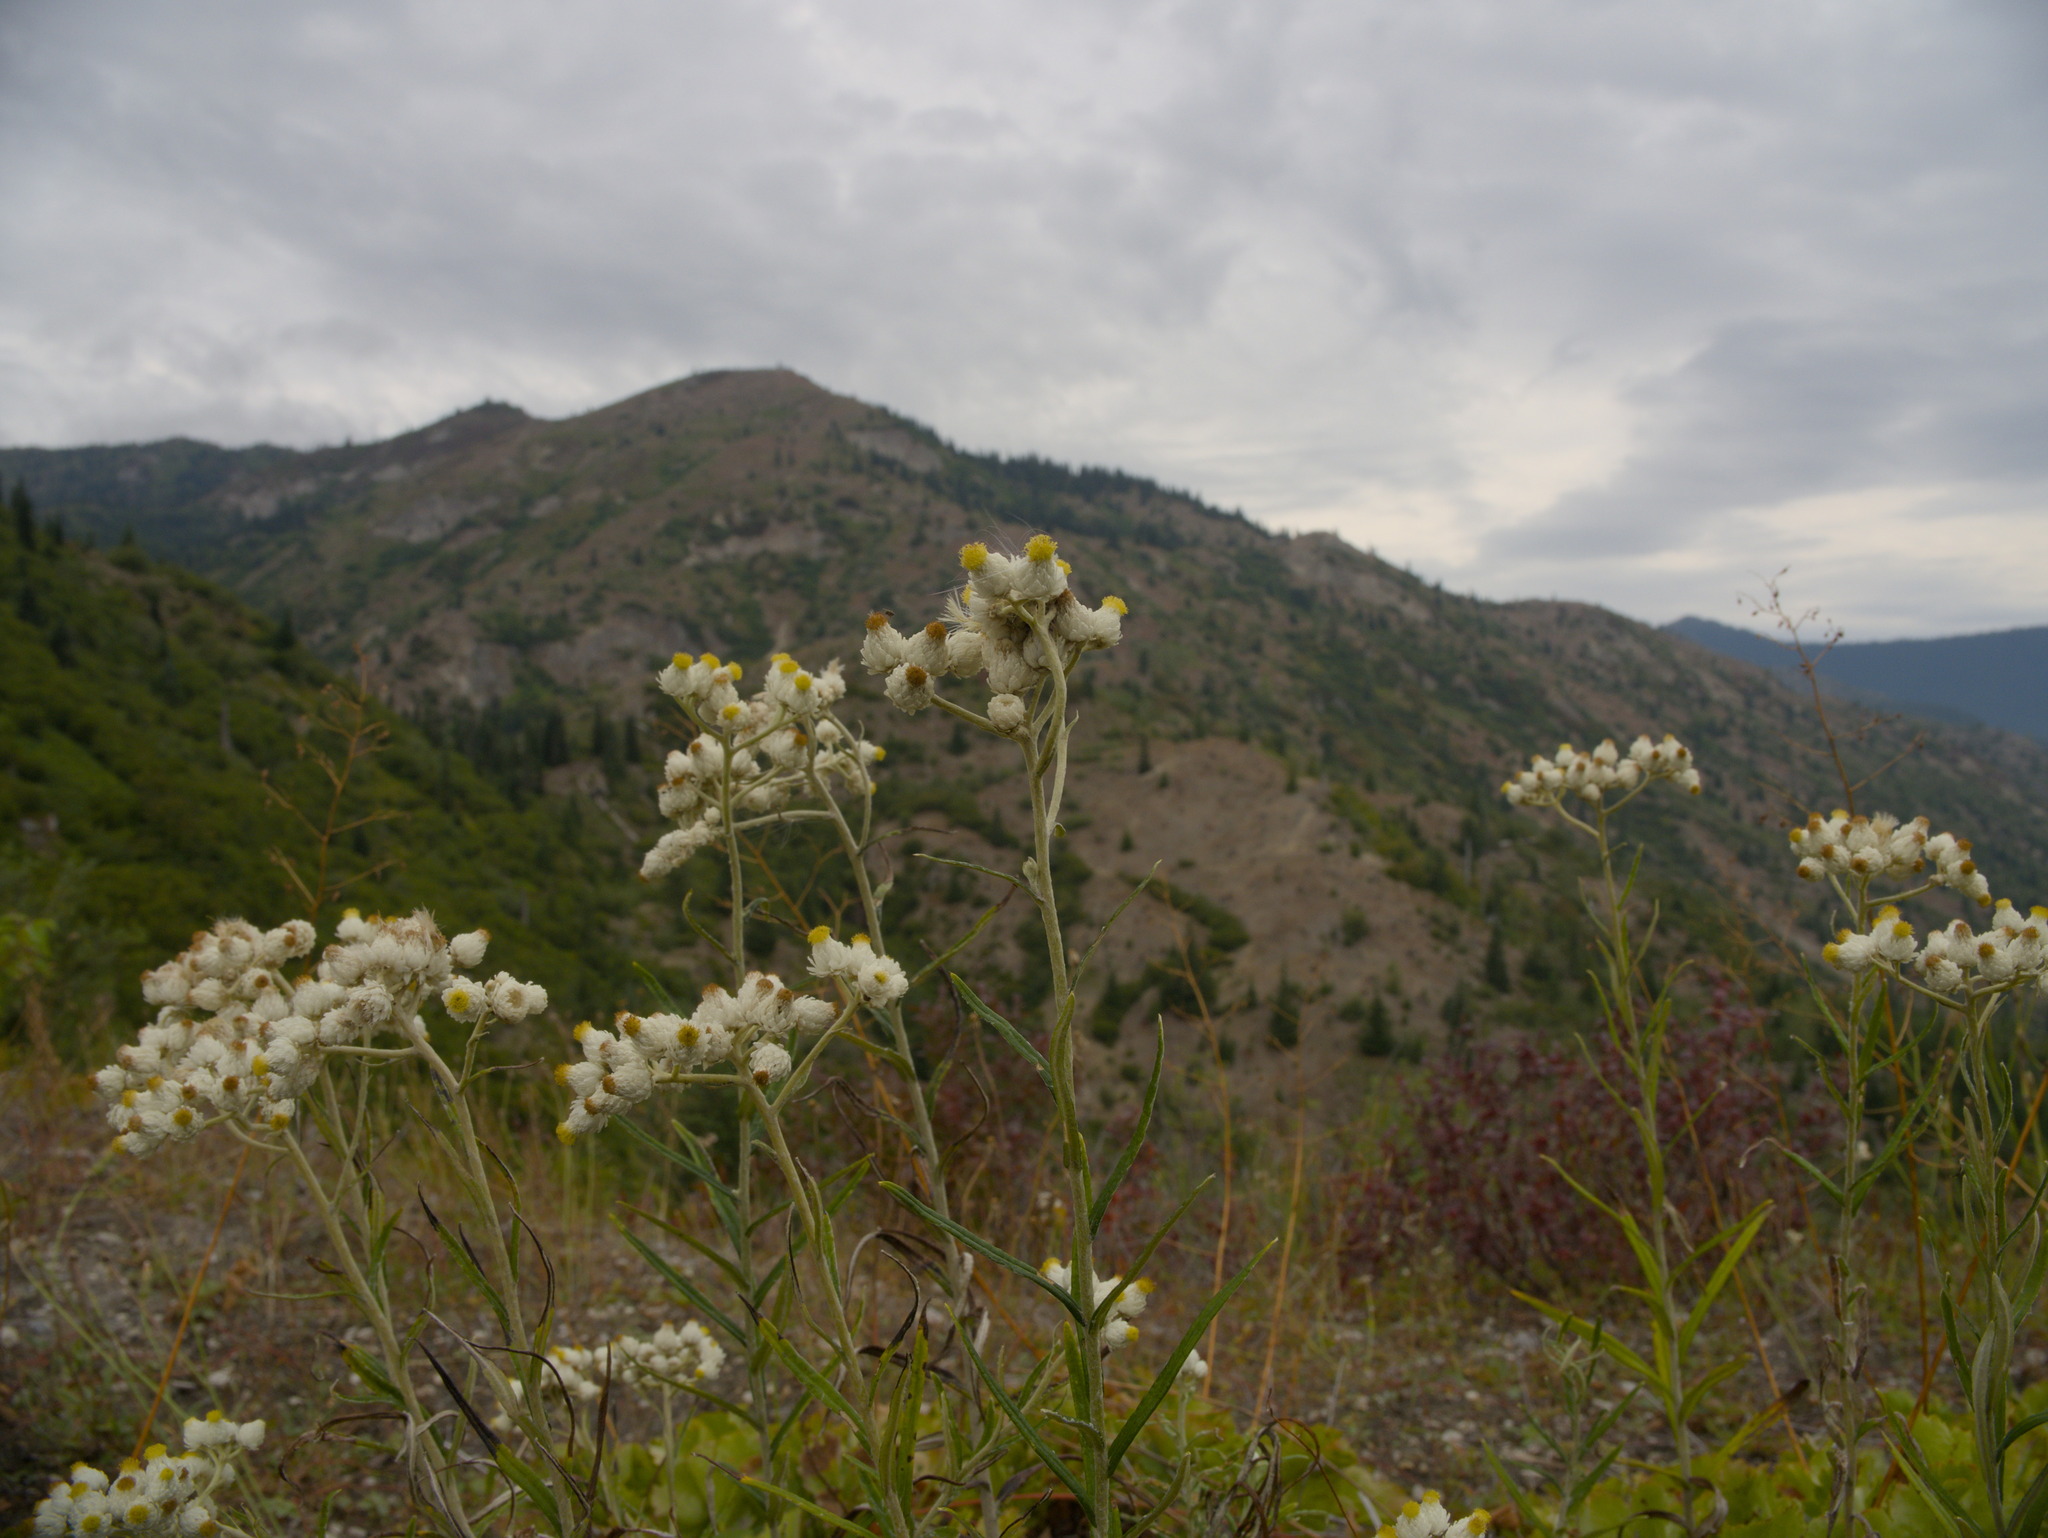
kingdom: Plantae
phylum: Tracheophyta
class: Magnoliopsida
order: Asterales
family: Asteraceae
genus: Anaphalis
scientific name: Anaphalis margaritacea
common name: Pearly everlasting
